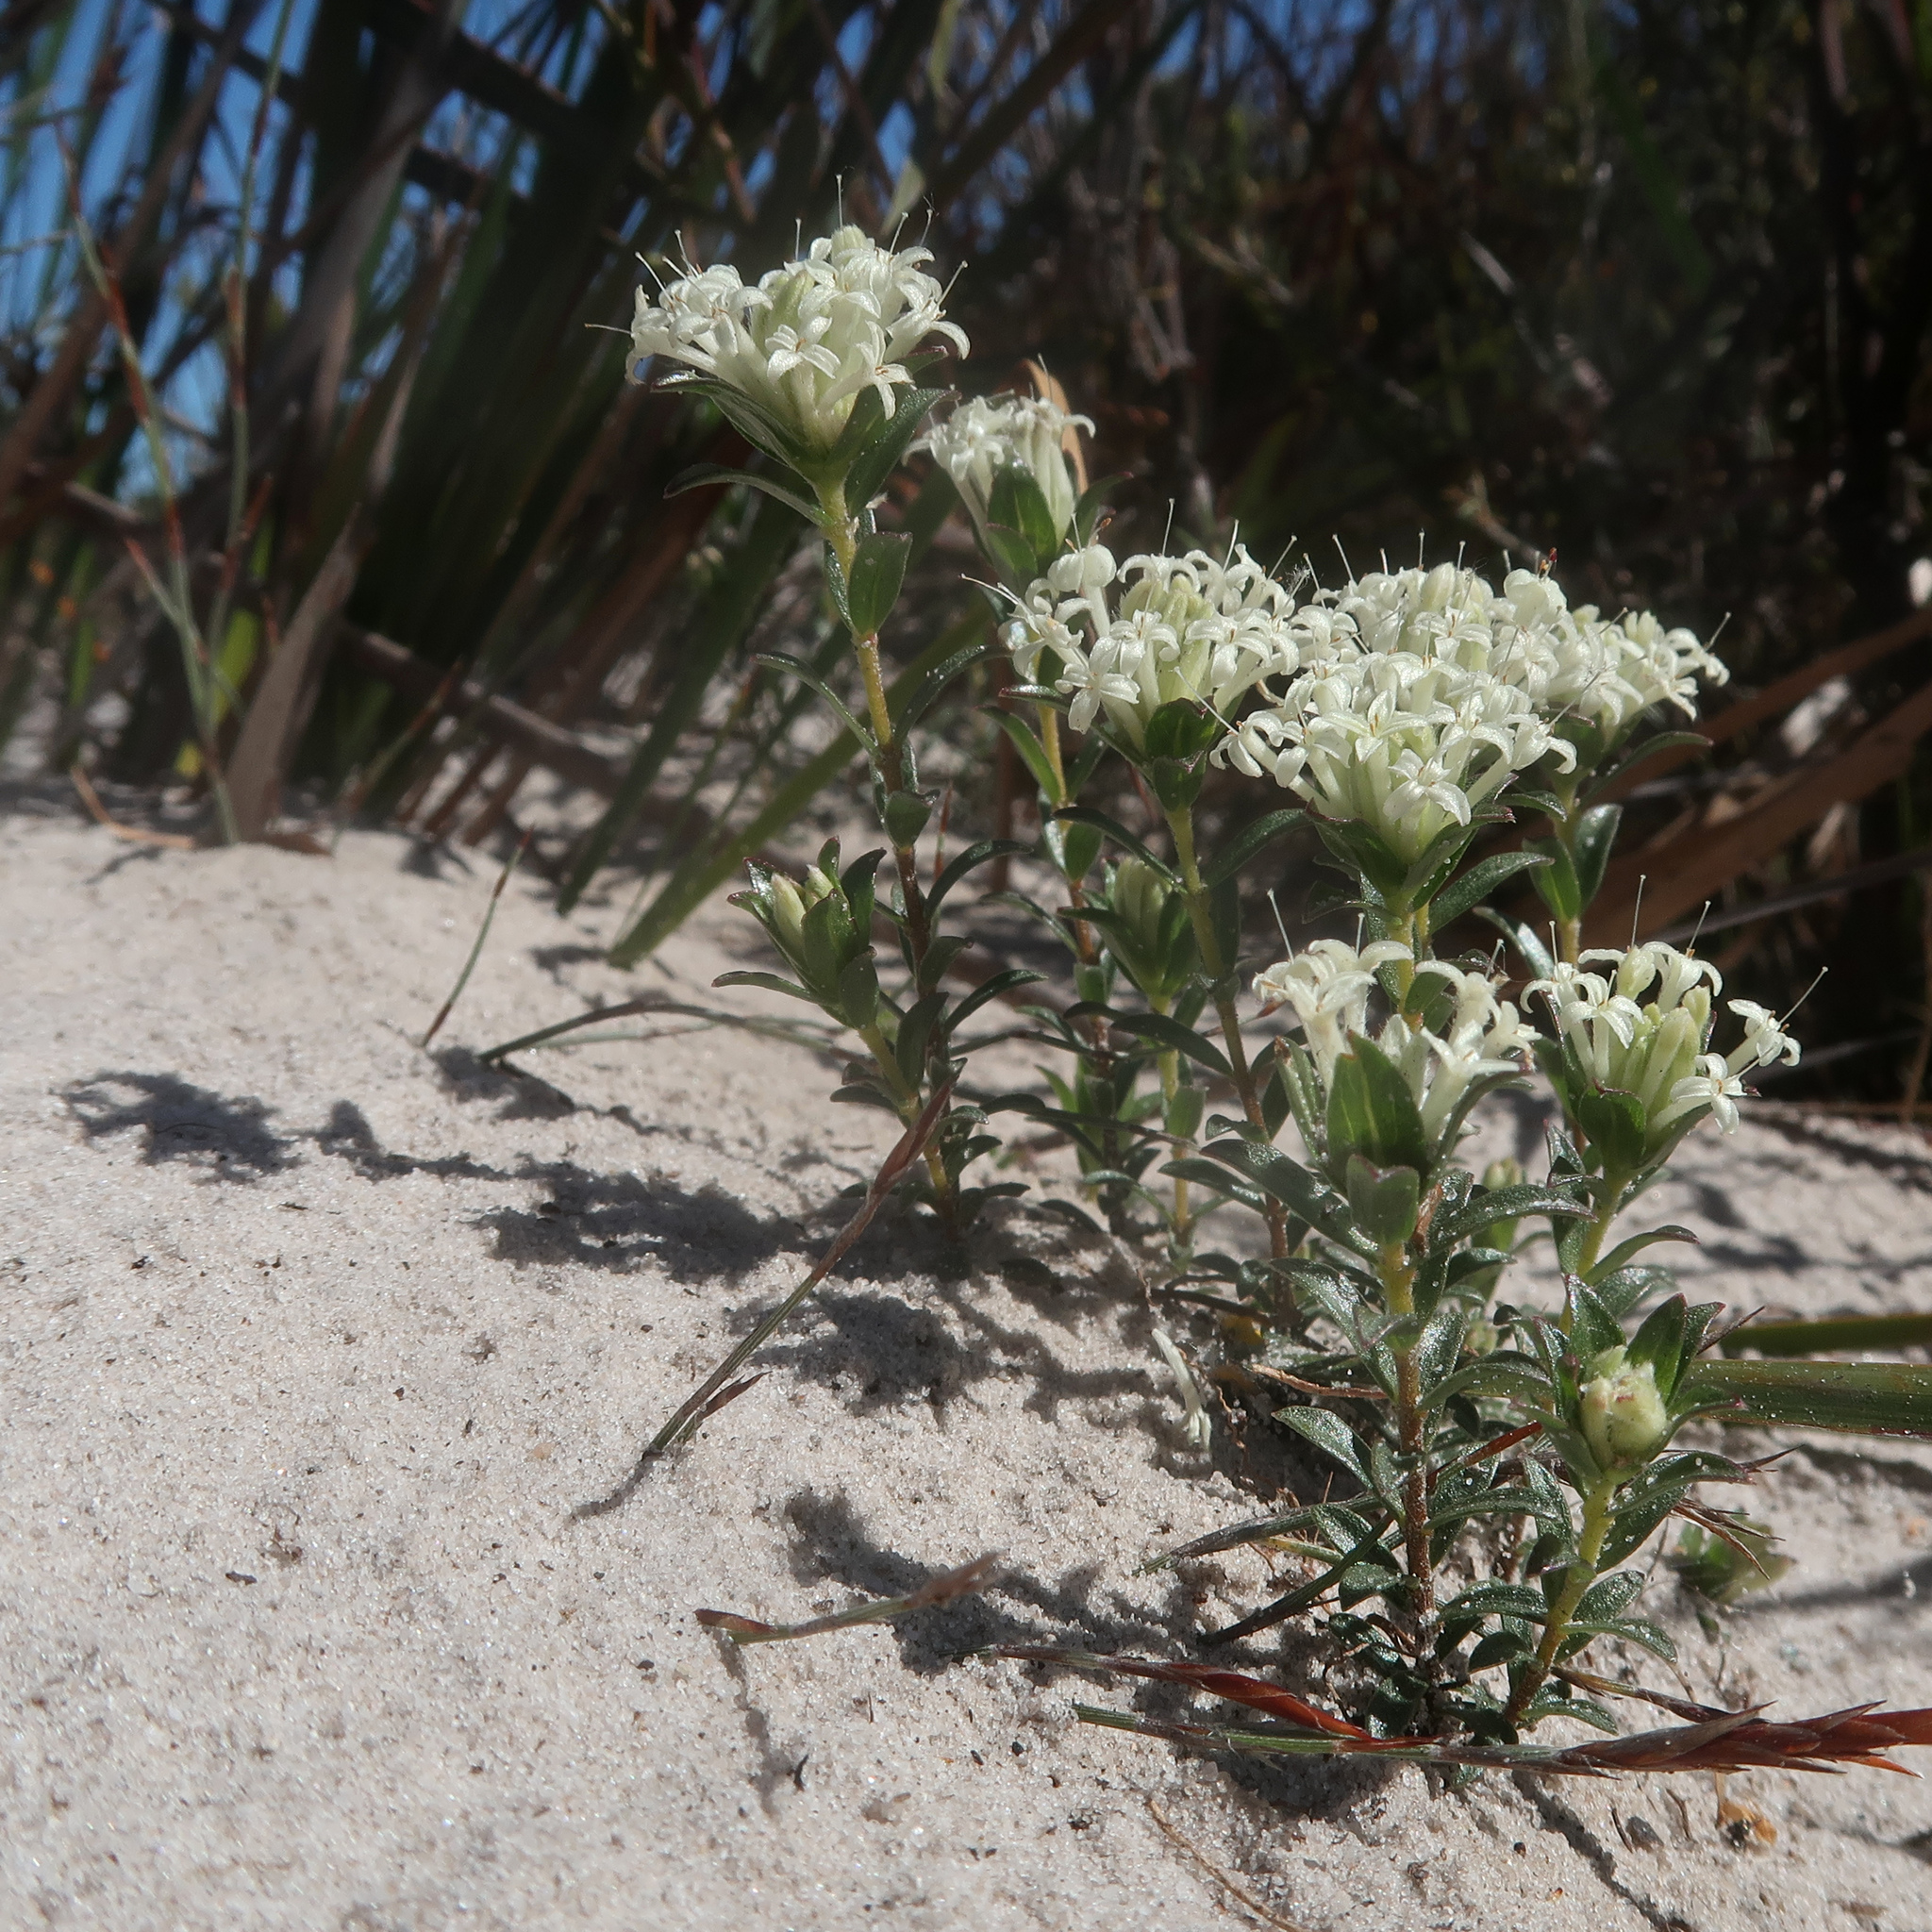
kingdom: Plantae
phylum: Tracheophyta
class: Magnoliopsida
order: Malvales
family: Thymelaeaceae
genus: Pimelea
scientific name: Pimelea humilis
